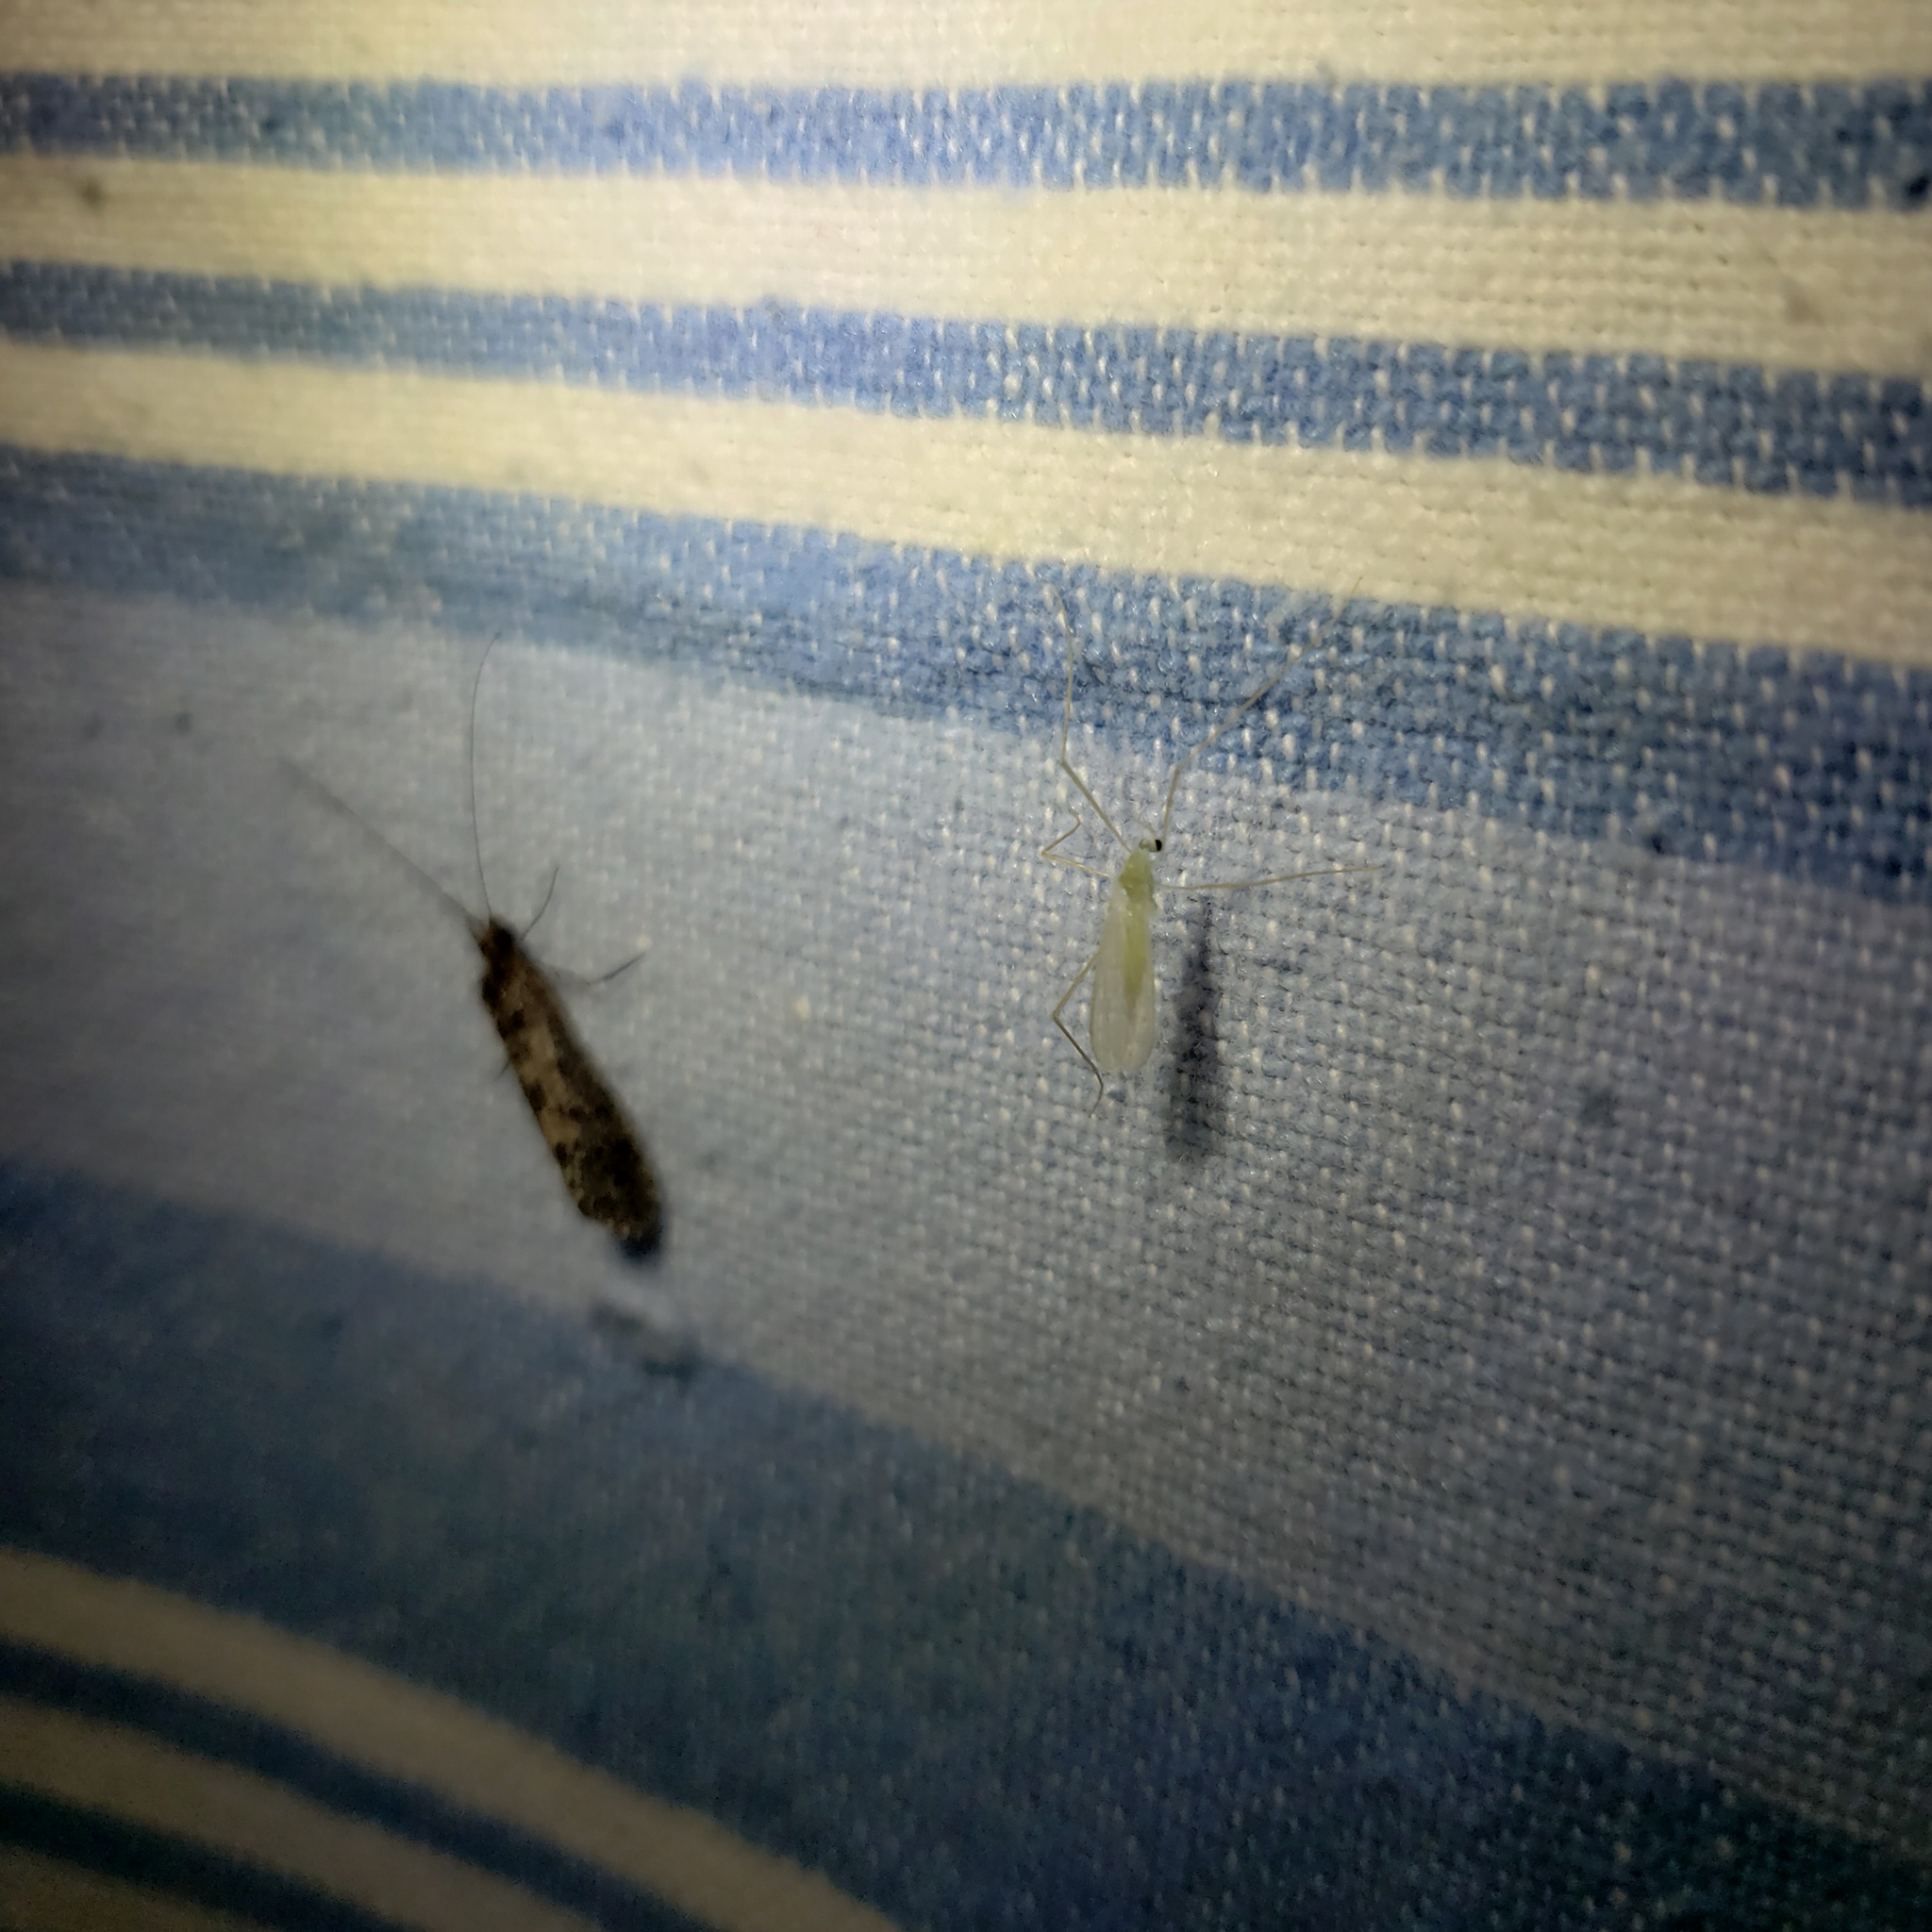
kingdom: Animalia
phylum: Arthropoda
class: Insecta
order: Diptera
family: Limoniidae
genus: Erioptera
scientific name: Erioptera
